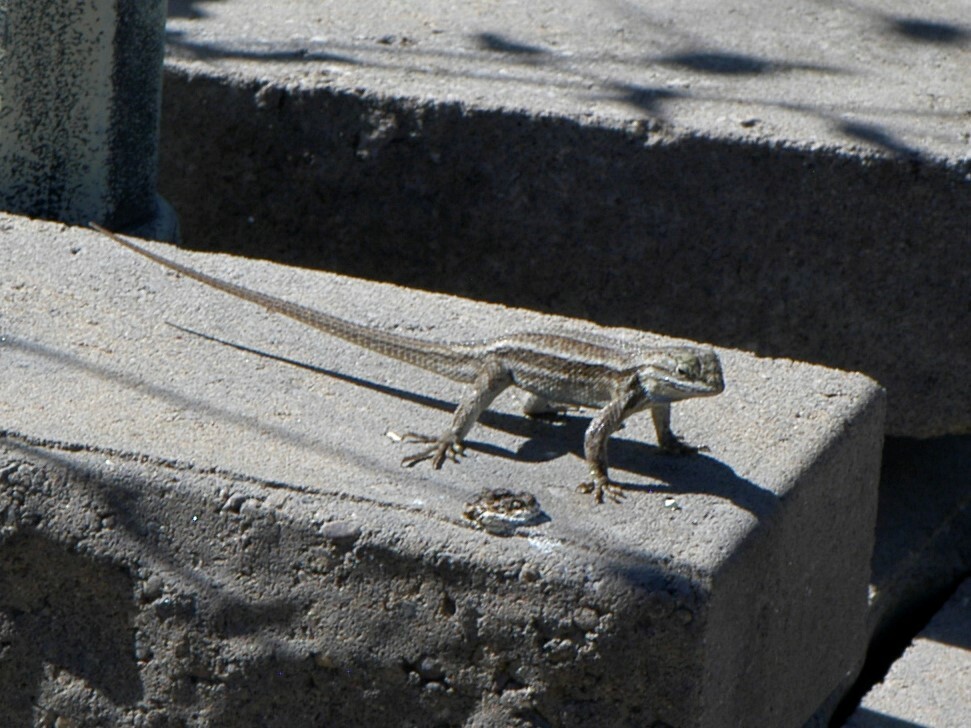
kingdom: Animalia
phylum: Chordata
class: Squamata
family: Phrynosomatidae
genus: Sceloporus
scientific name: Sceloporus cowlesi
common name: White sands prairie lizard
